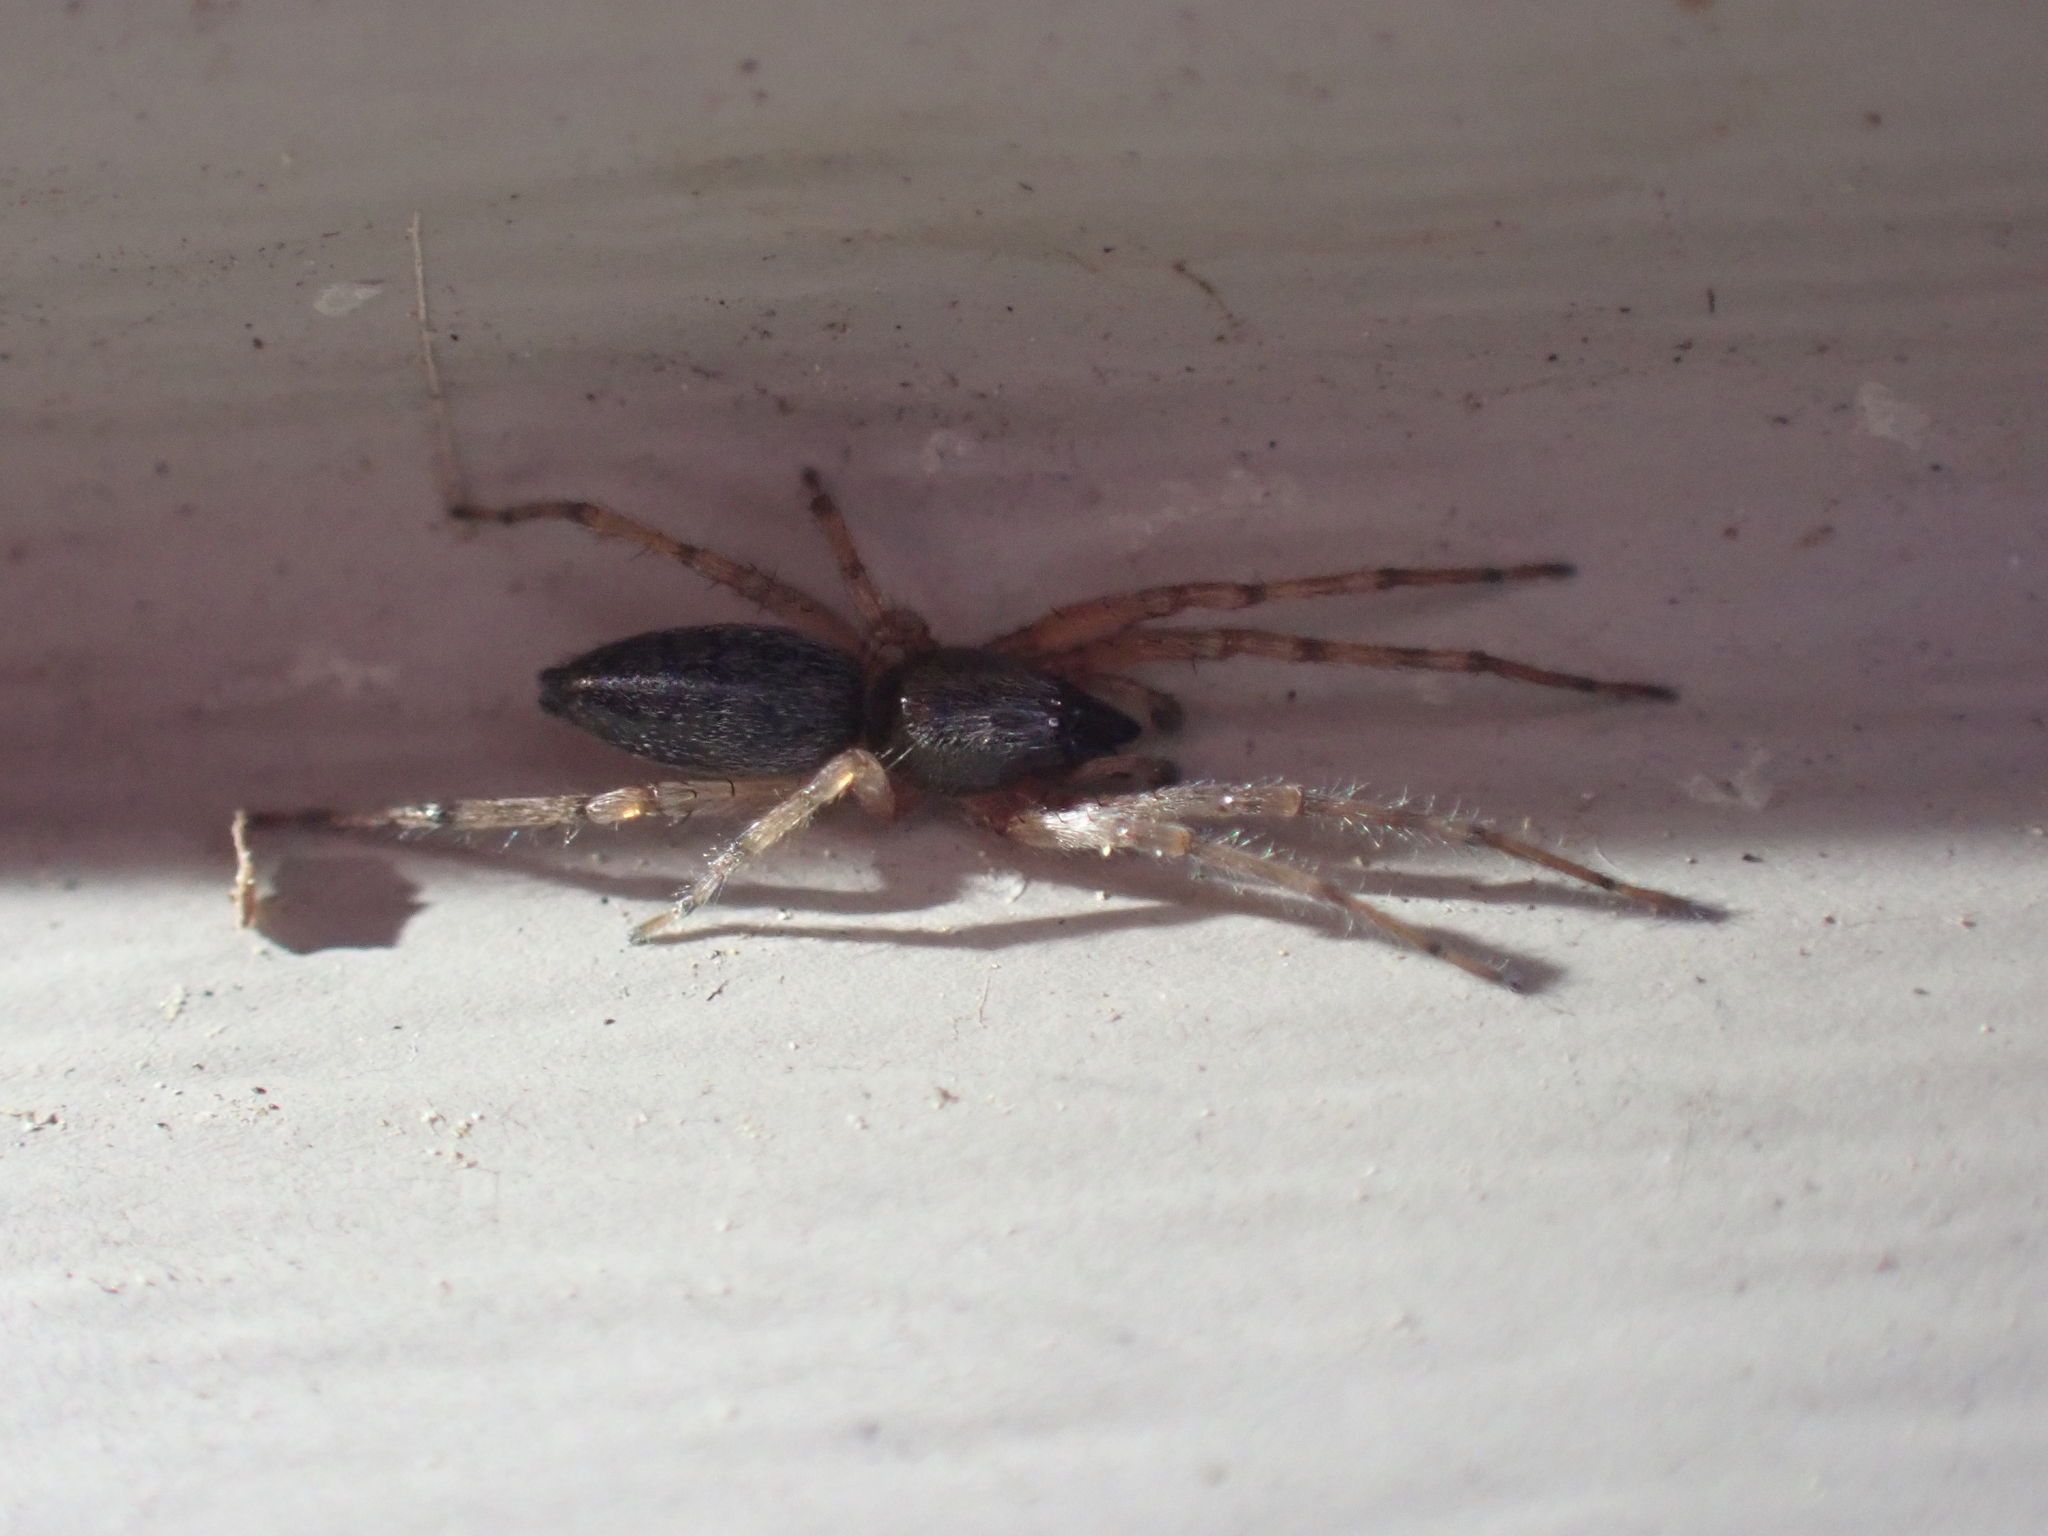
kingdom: Animalia
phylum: Arthropoda
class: Arachnida
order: Araneae
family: Anyphaenidae
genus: Lupettiana
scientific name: Lupettiana mordax
